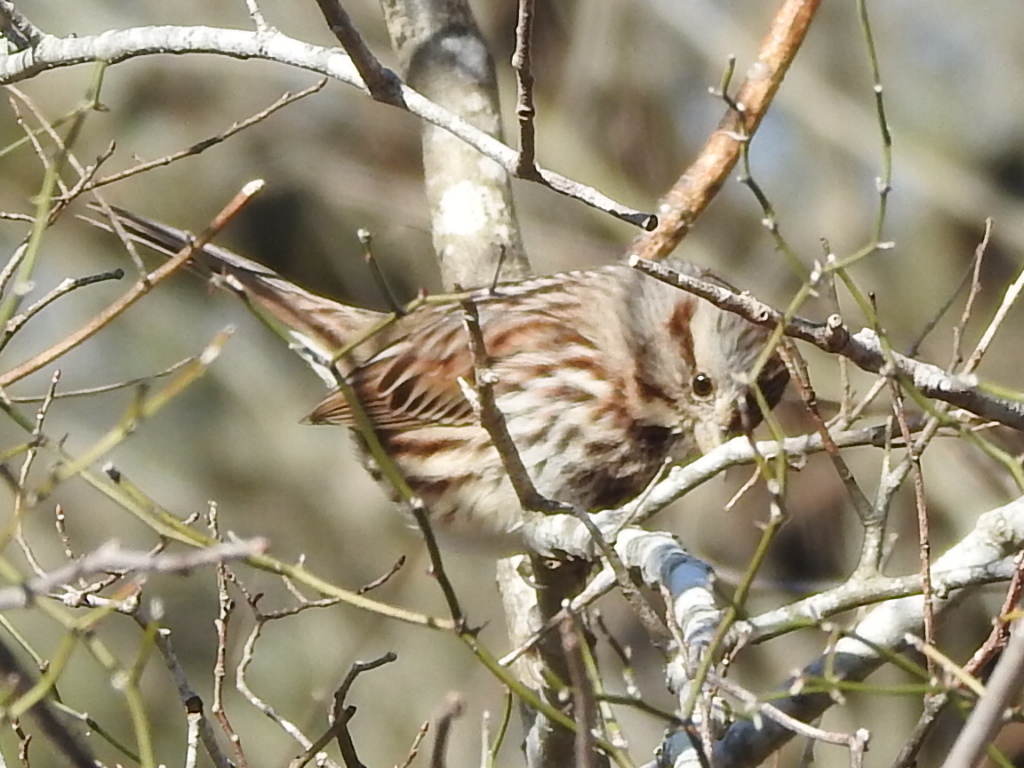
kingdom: Animalia
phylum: Chordata
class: Aves
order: Passeriformes
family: Passerellidae
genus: Melospiza
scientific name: Melospiza melodia
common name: Song sparrow
